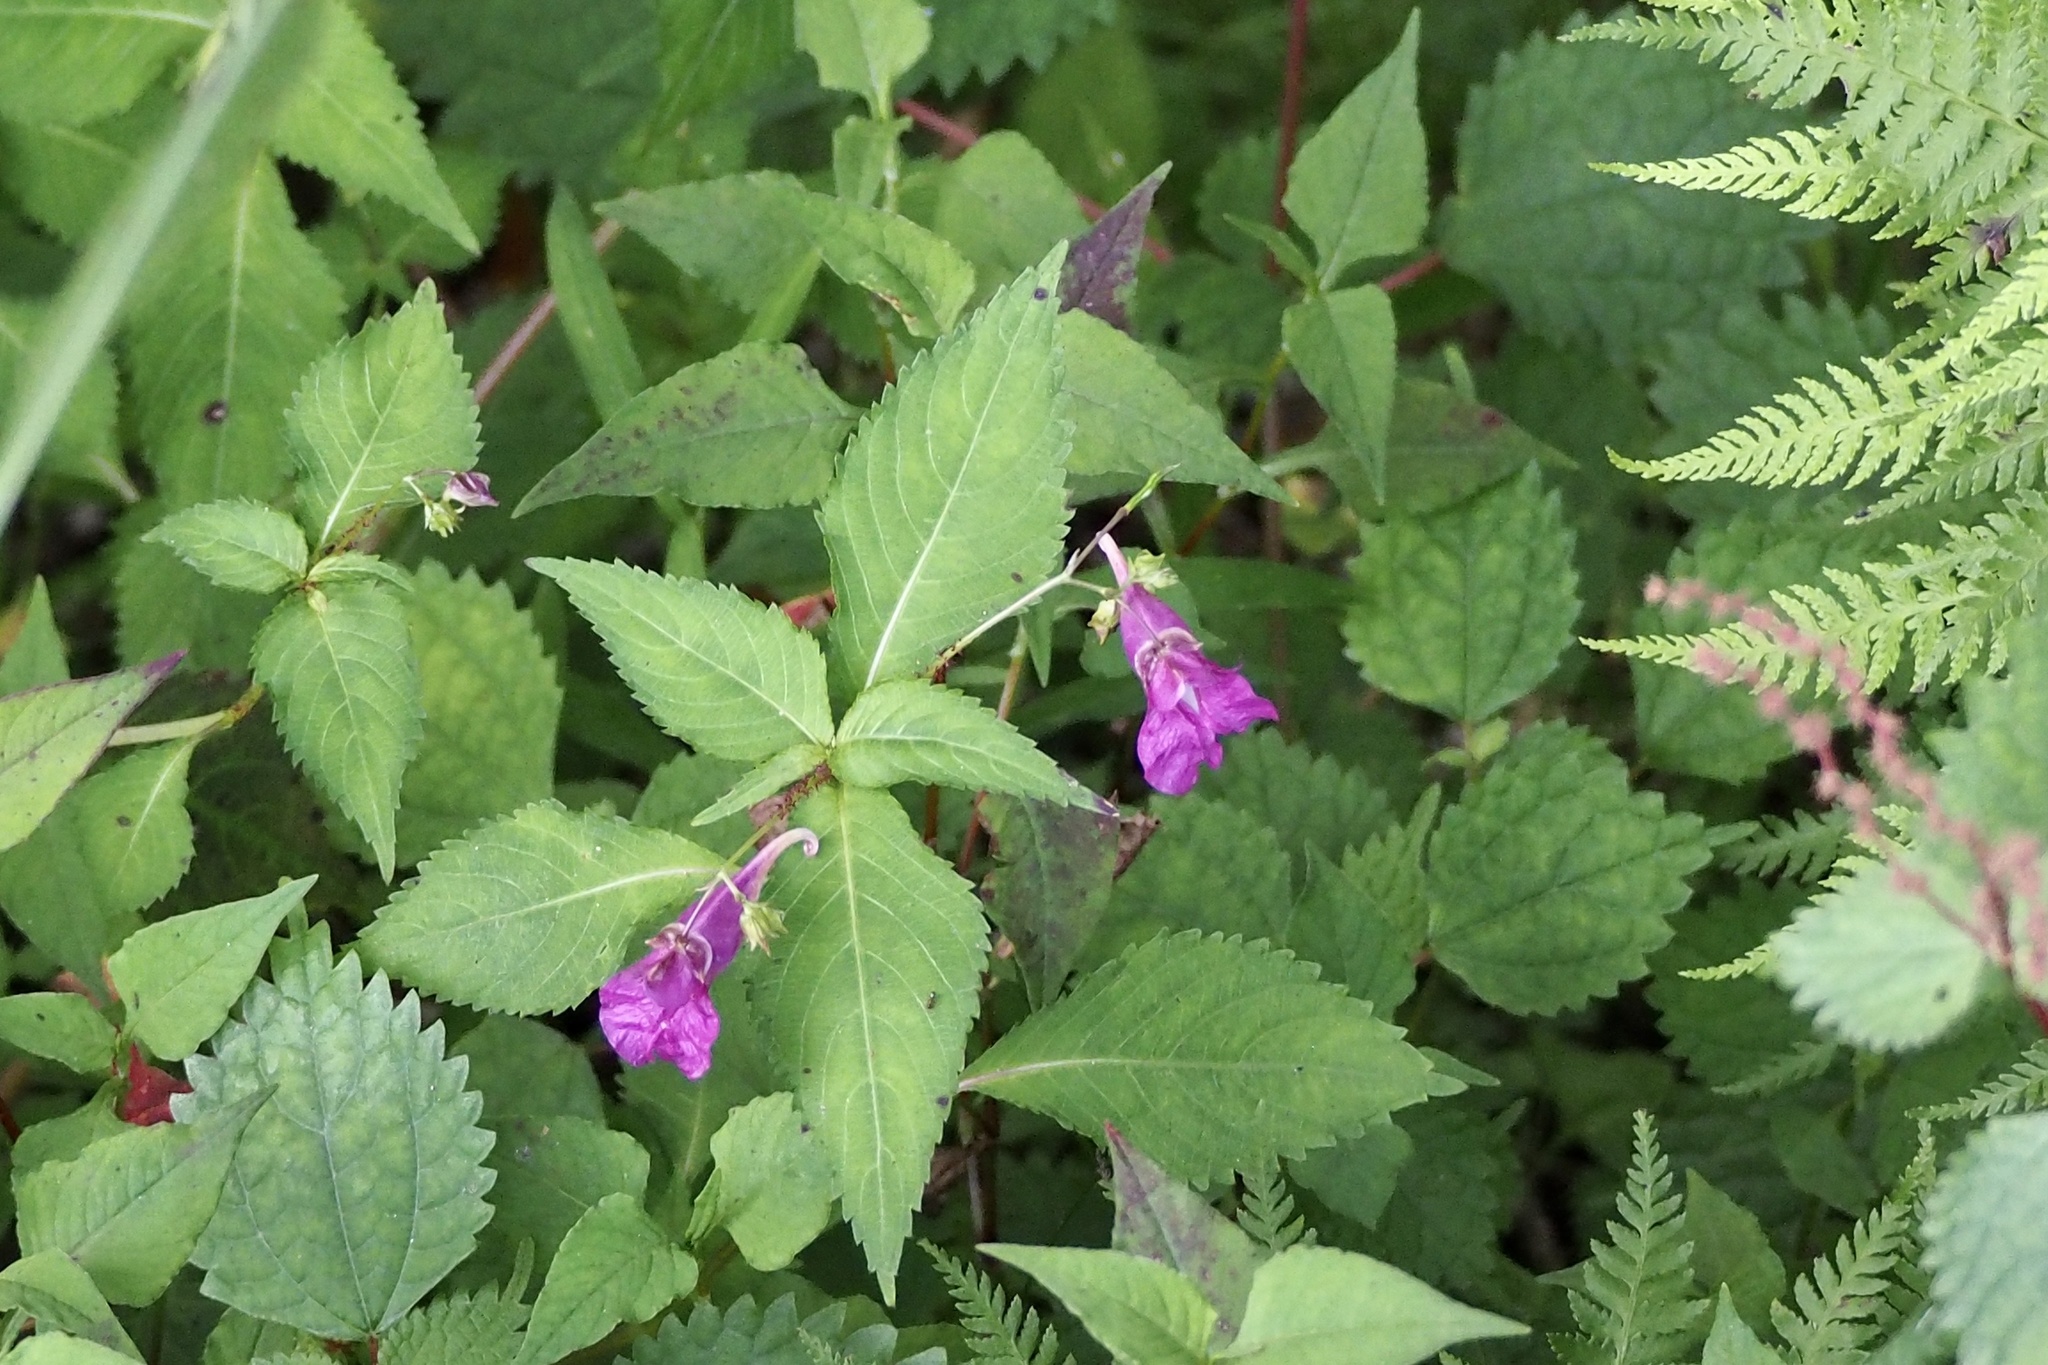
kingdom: Plantae
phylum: Tracheophyta
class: Magnoliopsida
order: Ericales
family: Balsaminaceae
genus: Impatiens
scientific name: Impatiens textorii
